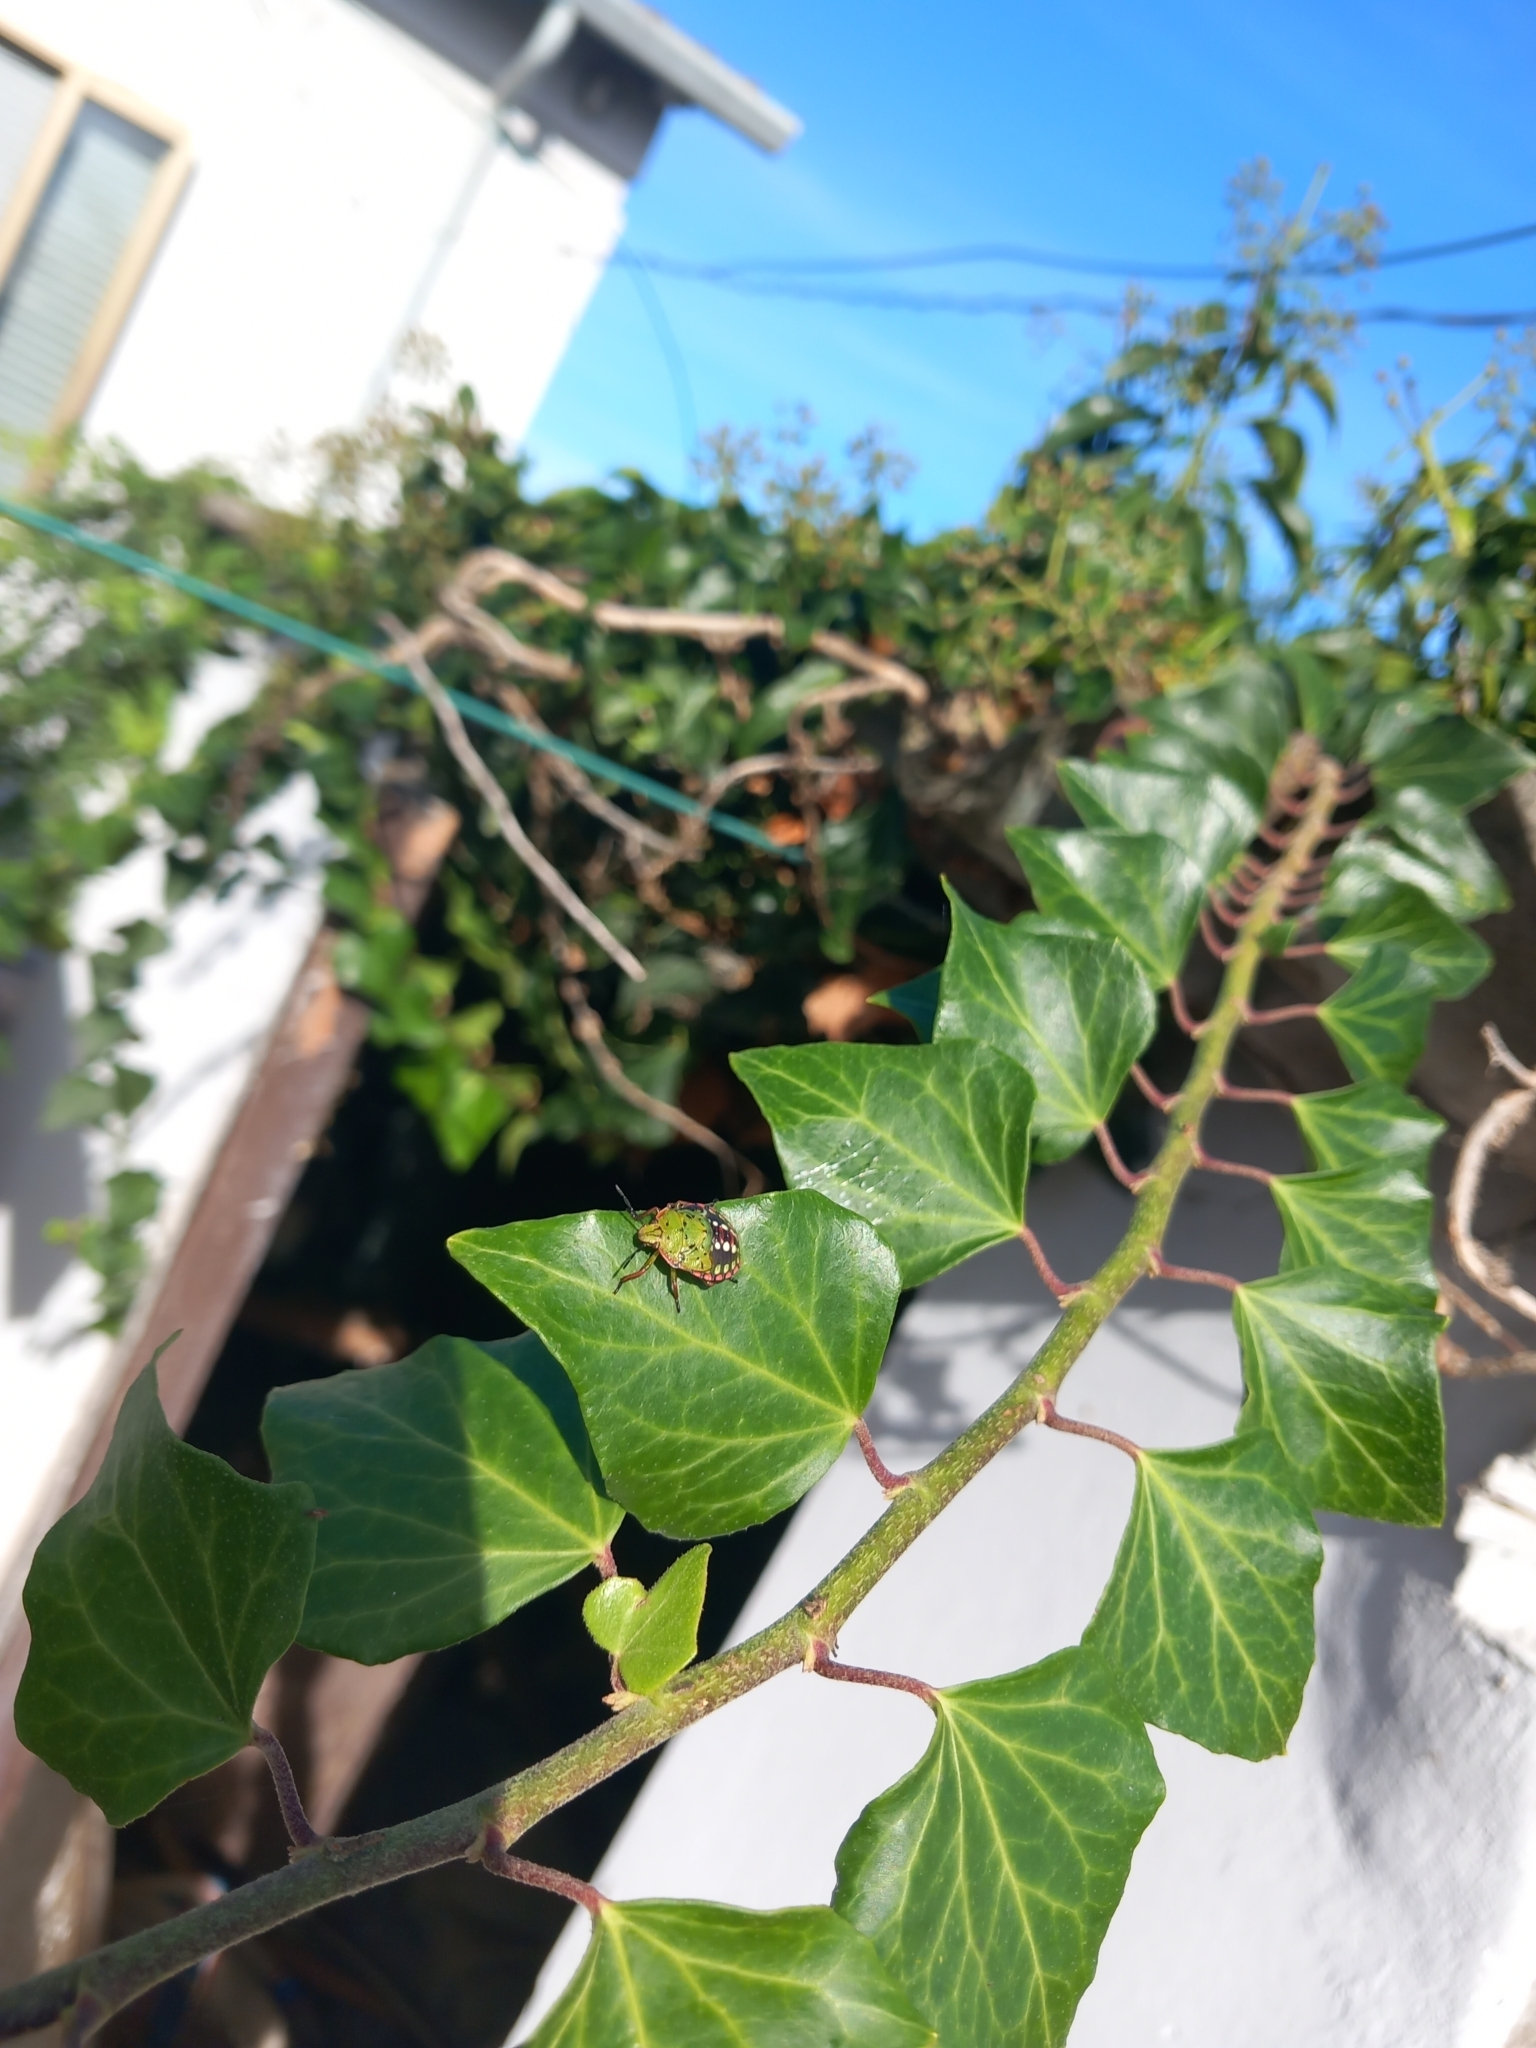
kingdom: Animalia
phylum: Arthropoda
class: Insecta
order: Hemiptera
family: Pentatomidae
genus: Nezara
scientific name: Nezara viridula
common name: Southern green stink bug
